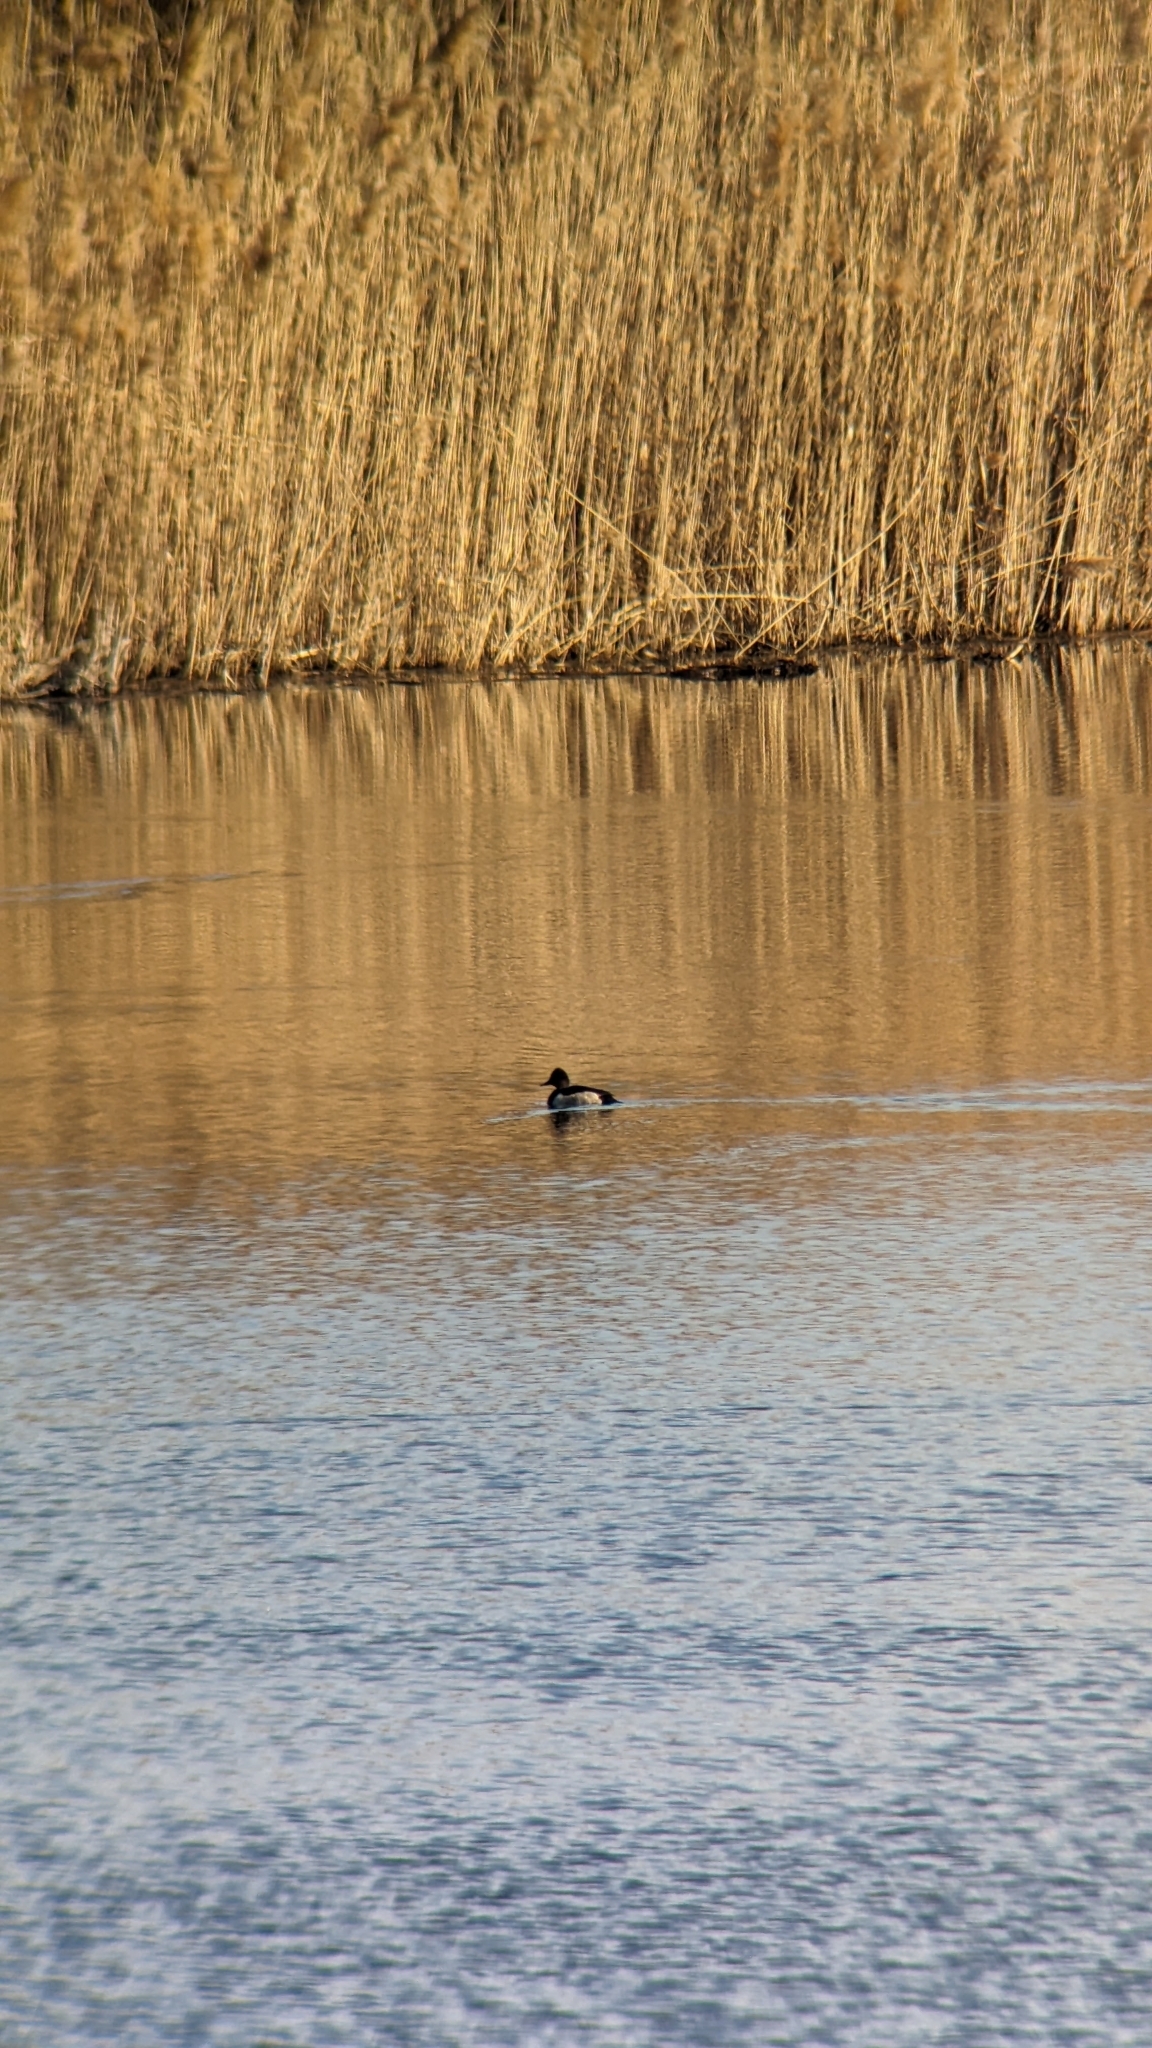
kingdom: Animalia
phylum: Chordata
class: Aves
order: Anseriformes
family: Anatidae
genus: Aythya
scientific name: Aythya collaris
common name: Ring-necked duck
